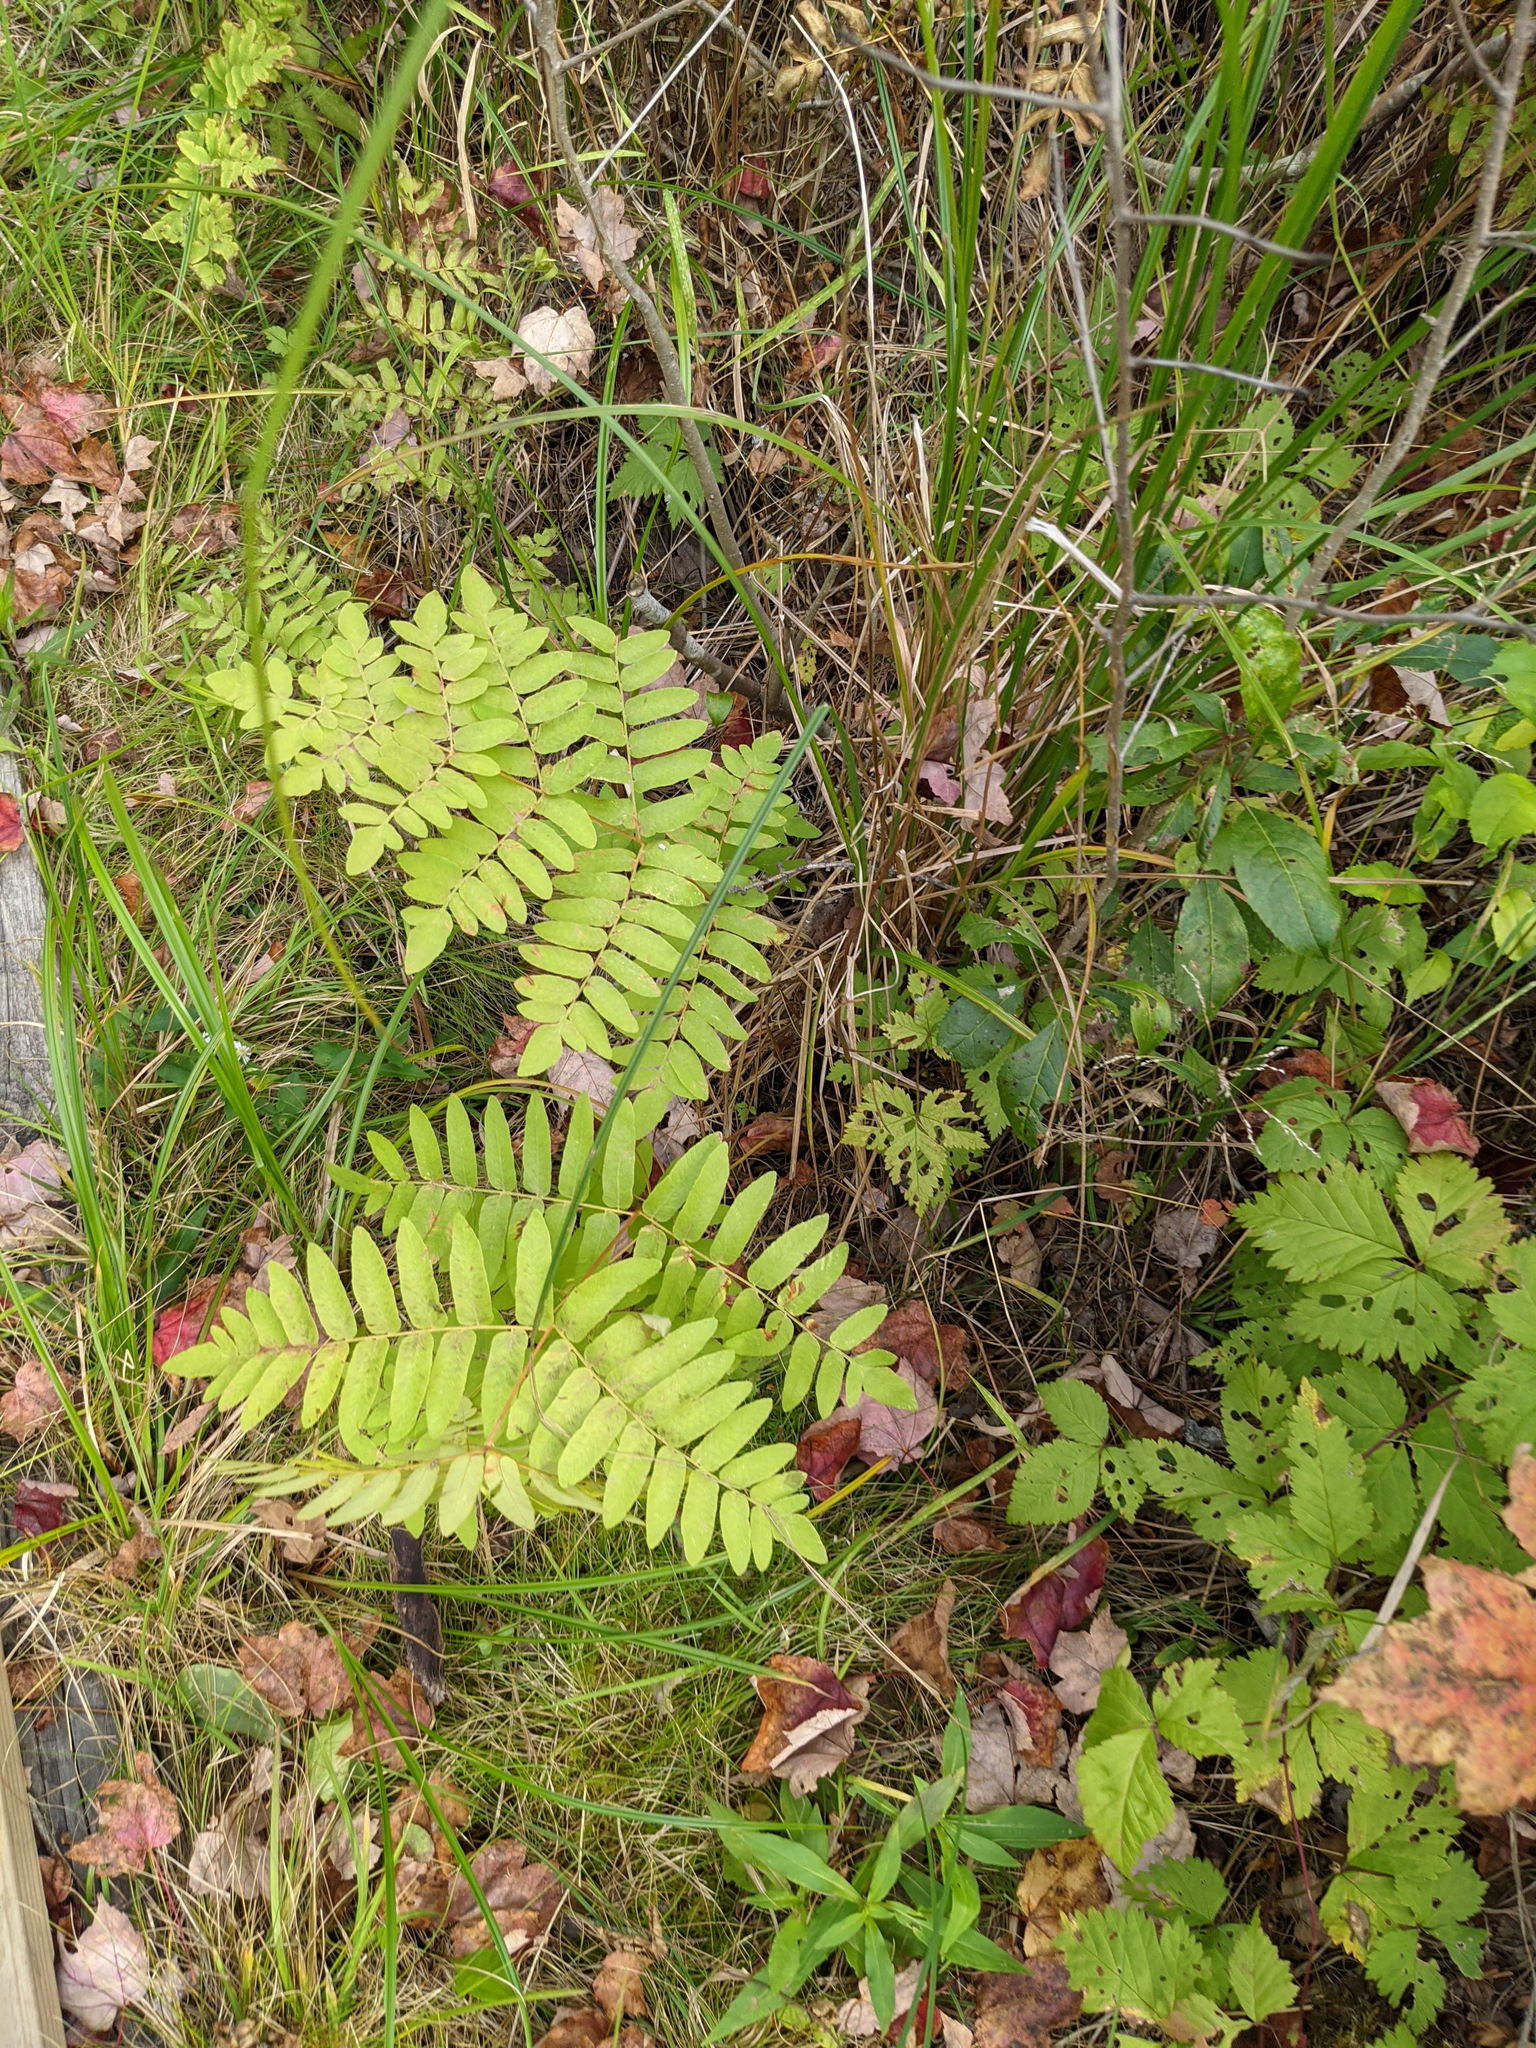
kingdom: Plantae
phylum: Tracheophyta
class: Polypodiopsida
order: Osmundales
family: Osmundaceae
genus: Osmunda
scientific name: Osmunda spectabilis
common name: American royal fern
